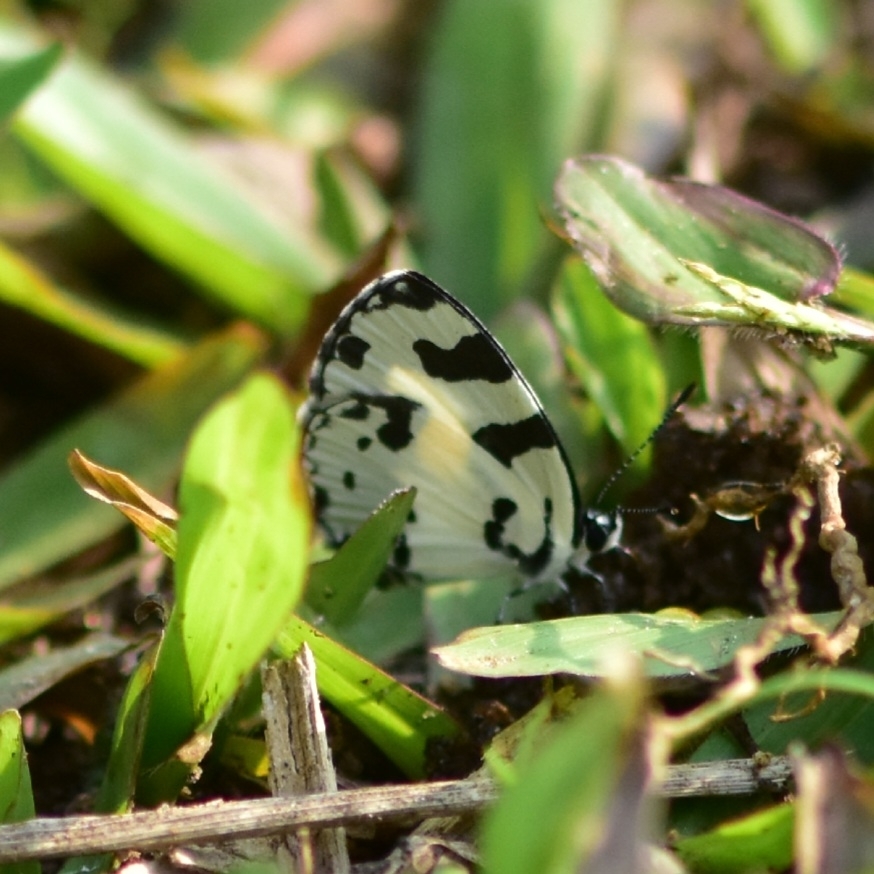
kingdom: Animalia
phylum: Arthropoda
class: Insecta
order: Lepidoptera
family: Lycaenidae
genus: Caleta
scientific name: Caleta decidia
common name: Angled pierrot
